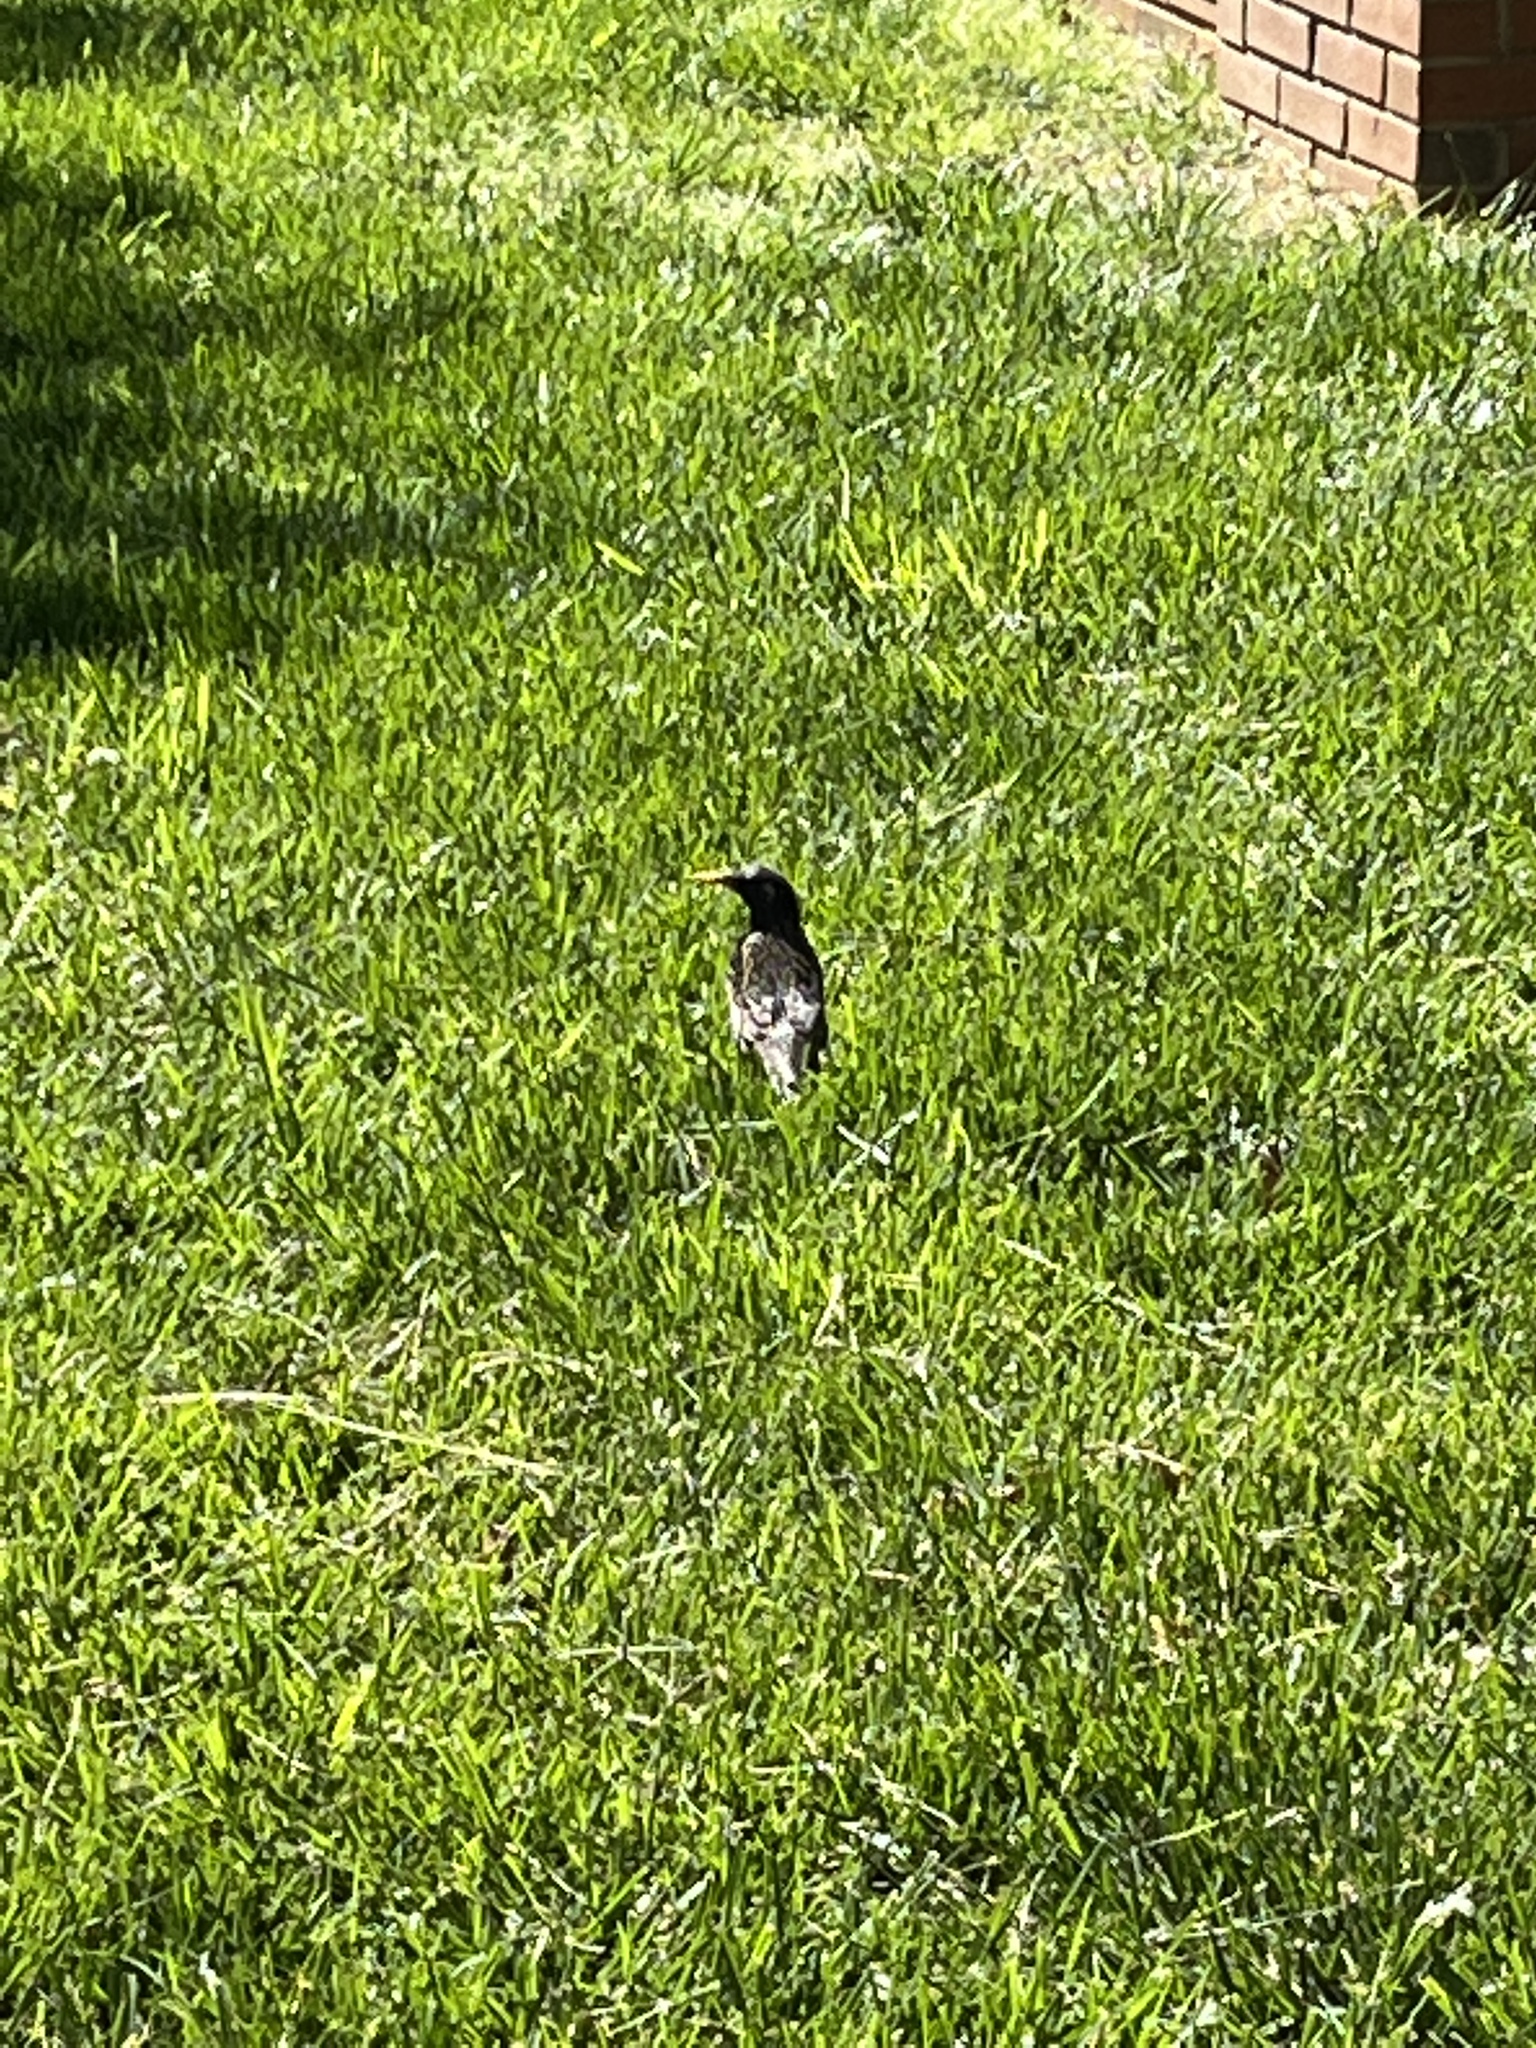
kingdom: Animalia
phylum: Chordata
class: Aves
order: Passeriformes
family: Sturnidae
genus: Sturnus
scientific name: Sturnus vulgaris
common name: Common starling
